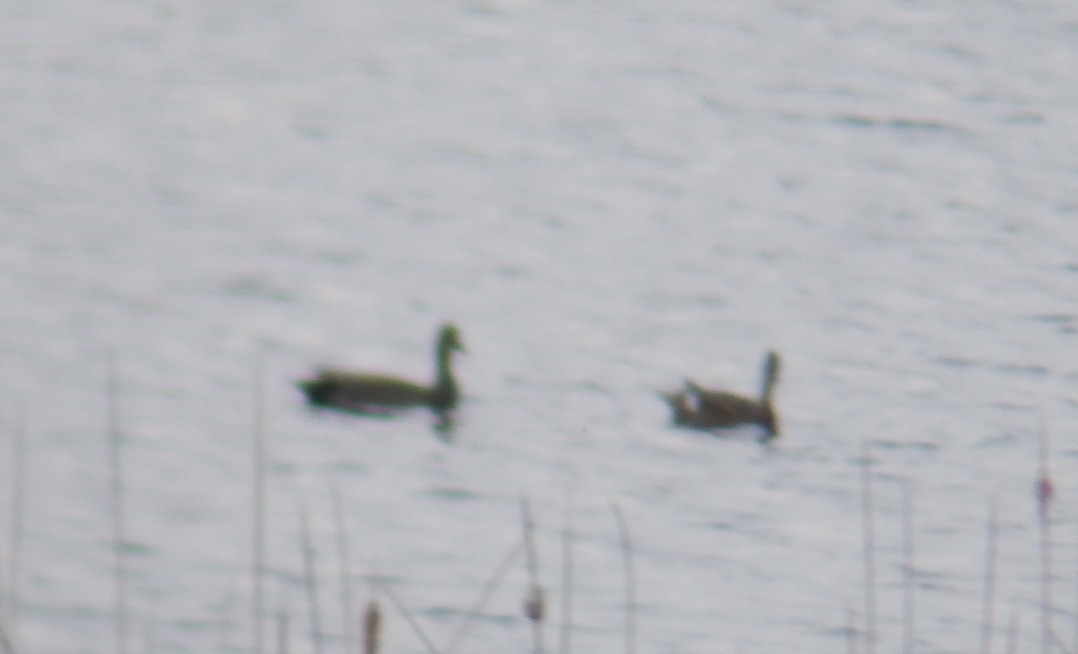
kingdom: Animalia
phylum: Chordata
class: Aves
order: Anseriformes
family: Anatidae
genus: Mareca
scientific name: Mareca strepera
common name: Gadwall
